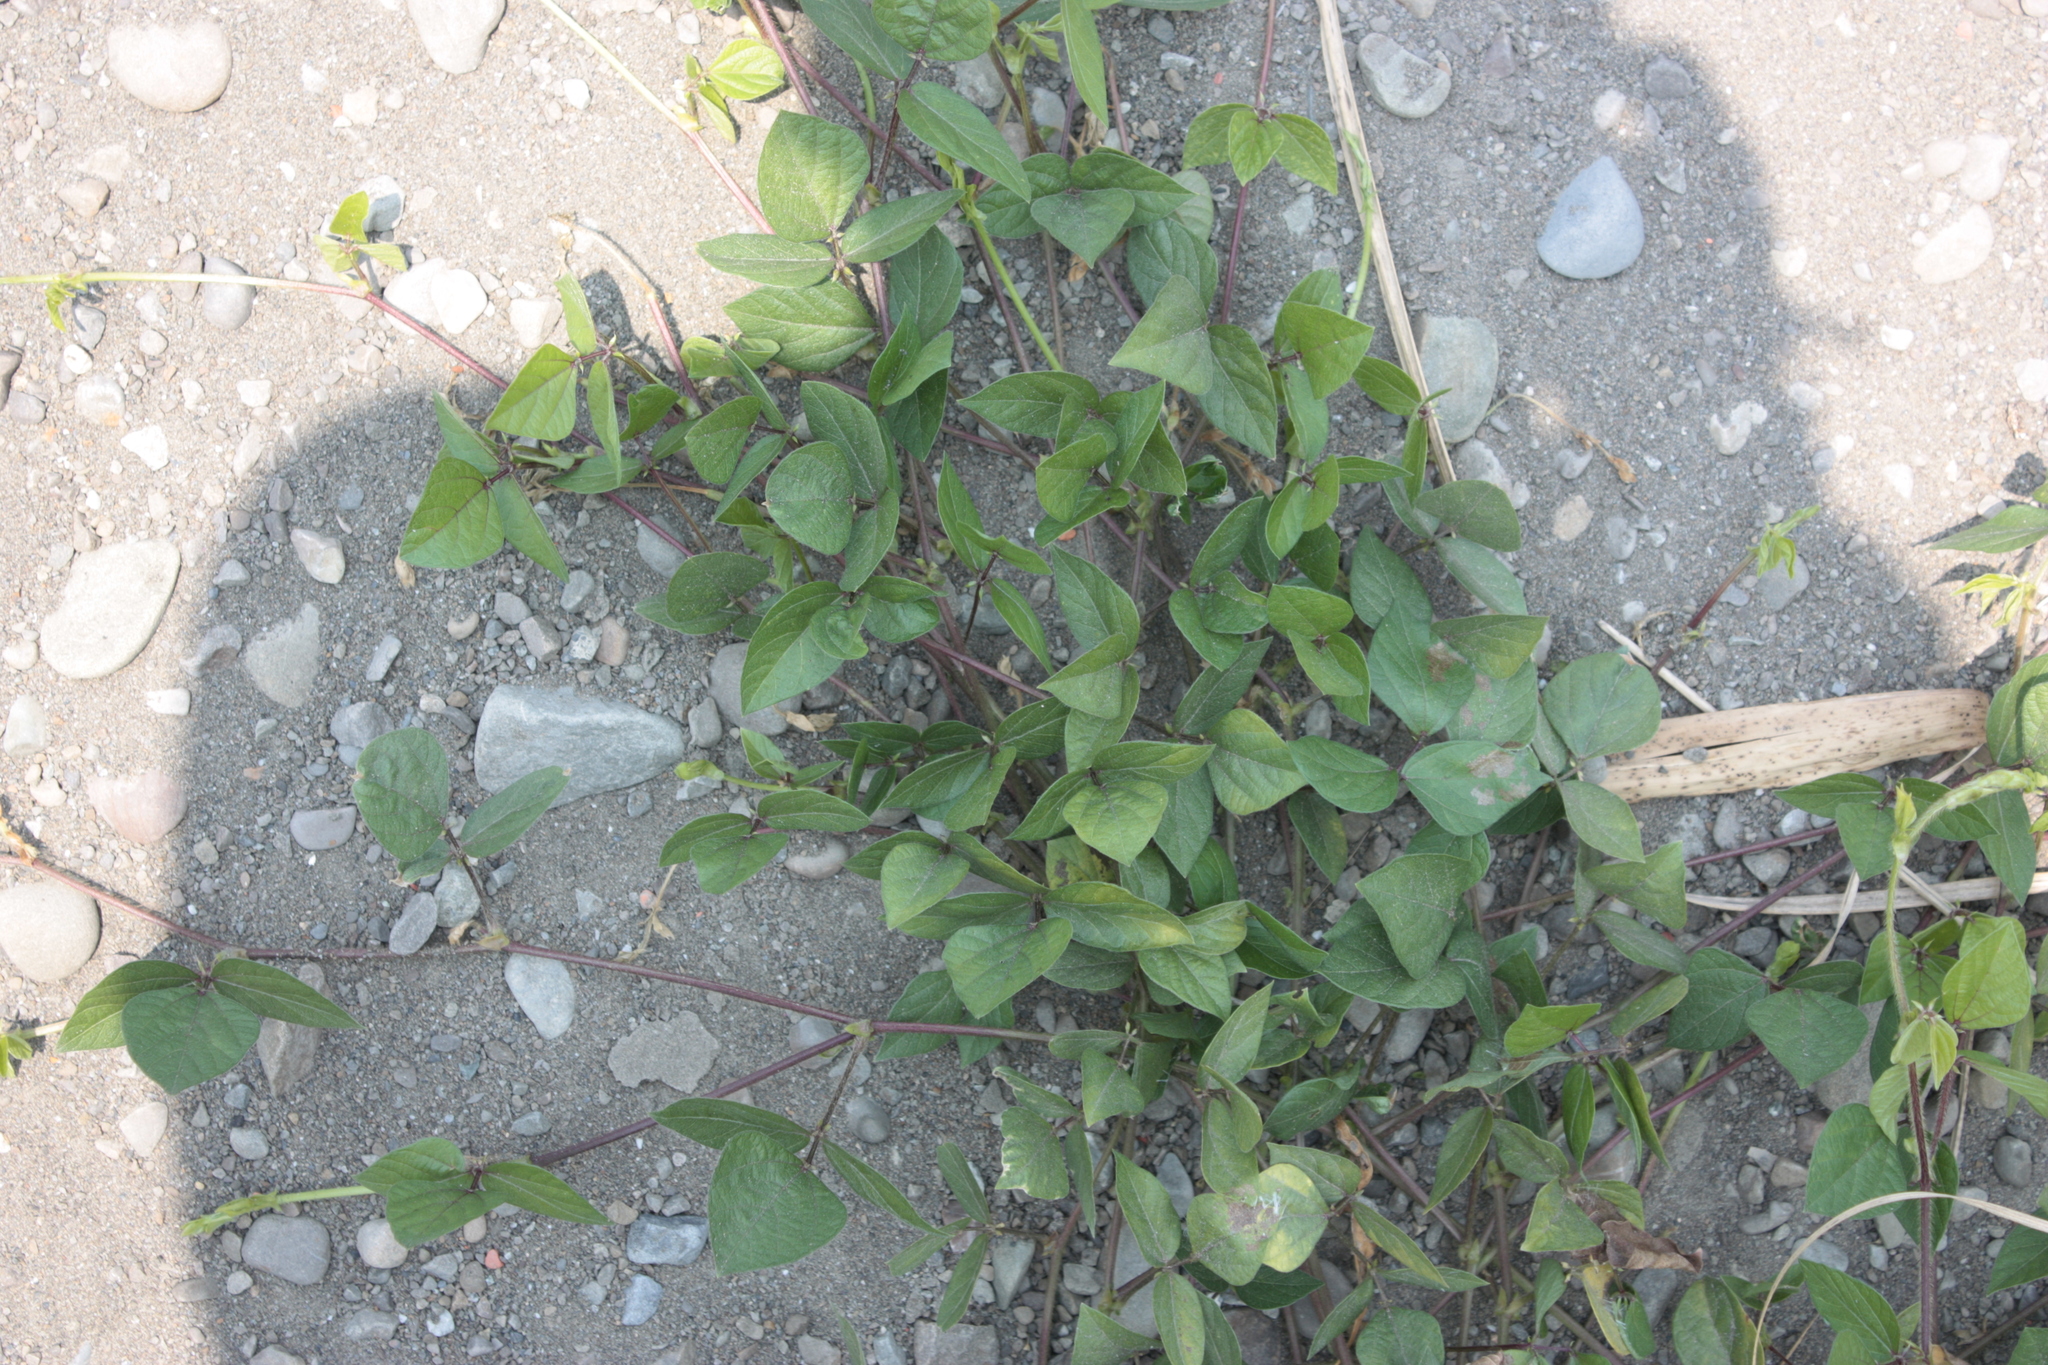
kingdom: Plantae
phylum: Tracheophyta
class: Magnoliopsida
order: Fabales
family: Fabaceae
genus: Macroptilium
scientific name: Macroptilium lathyroides
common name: Wild bushbean
